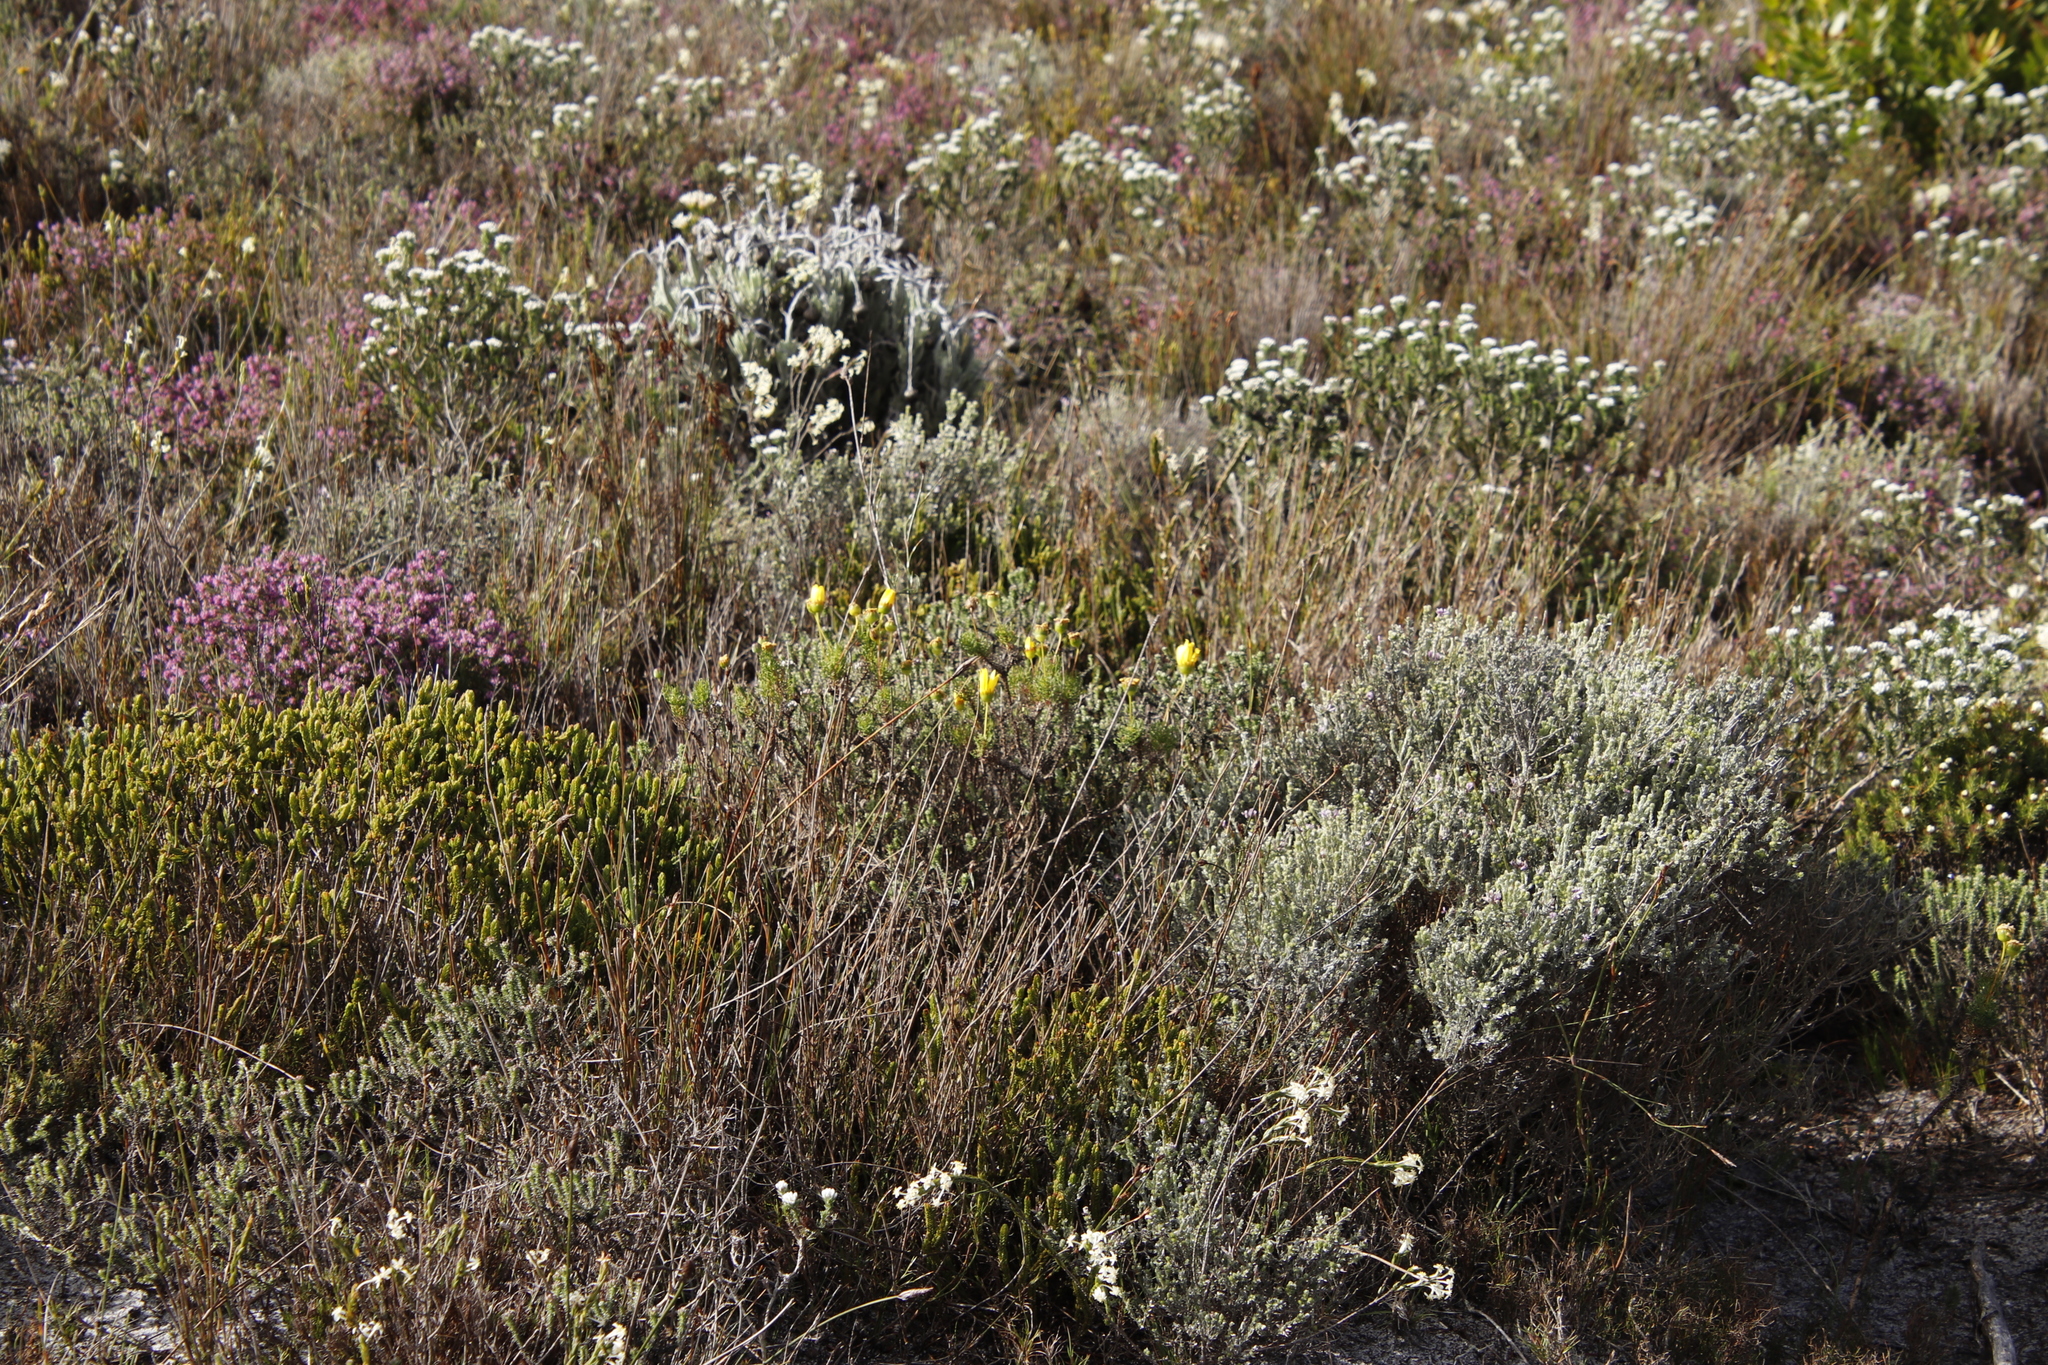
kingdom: Plantae
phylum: Tracheophyta
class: Magnoliopsida
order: Asterales
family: Asteraceae
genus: Euryops
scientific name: Euryops abrotanifolius
